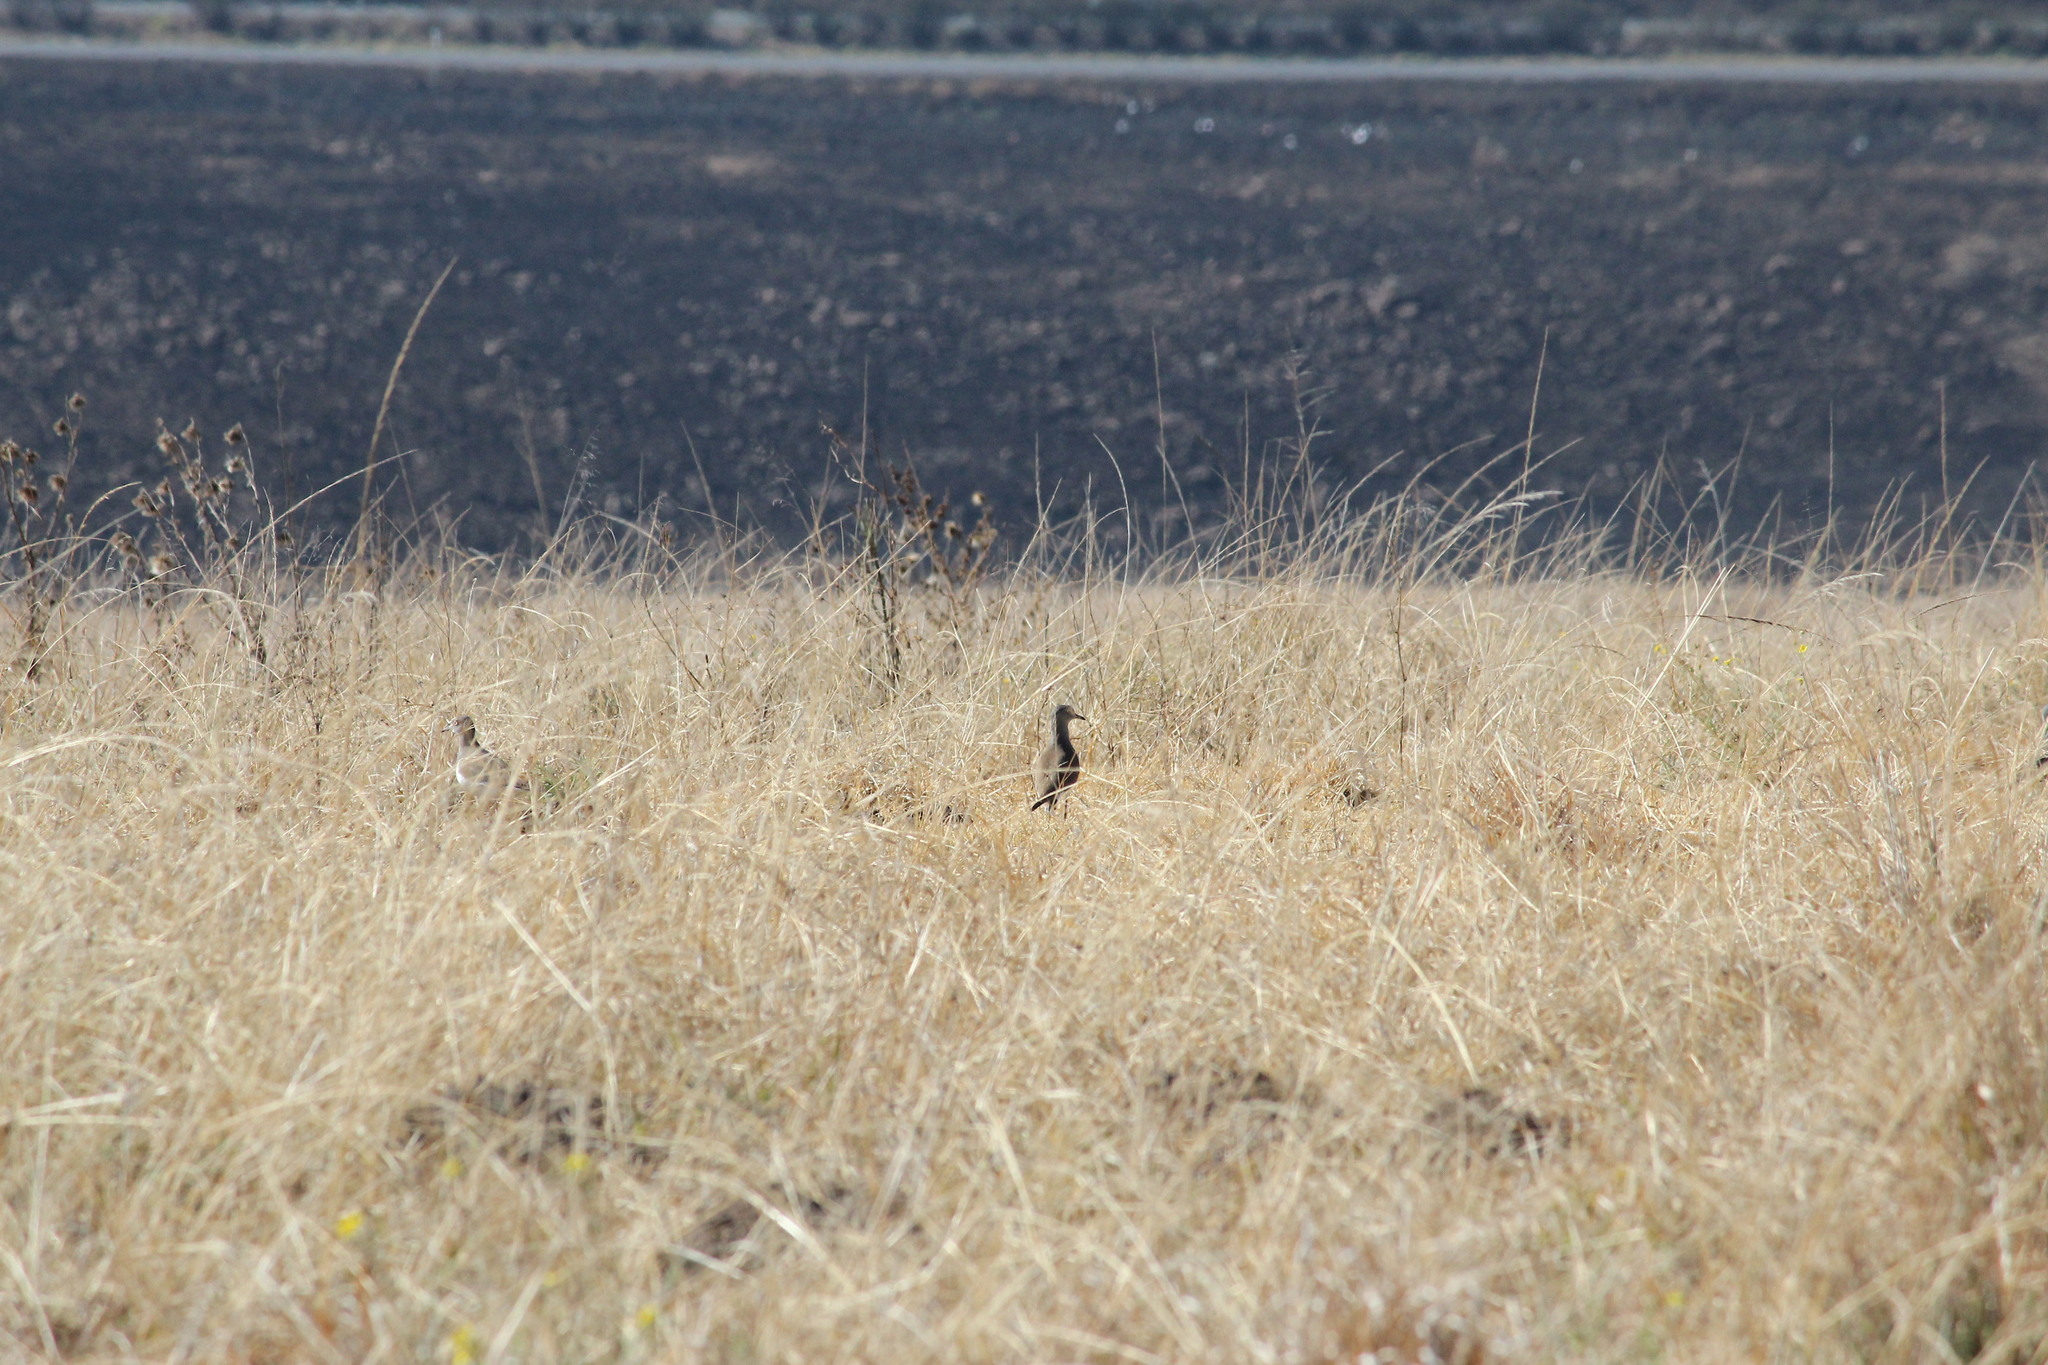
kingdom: Animalia
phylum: Chordata
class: Aves
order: Charadriiformes
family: Charadriidae
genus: Vanellus
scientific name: Vanellus melanopterus
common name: Black-winged lapwing
